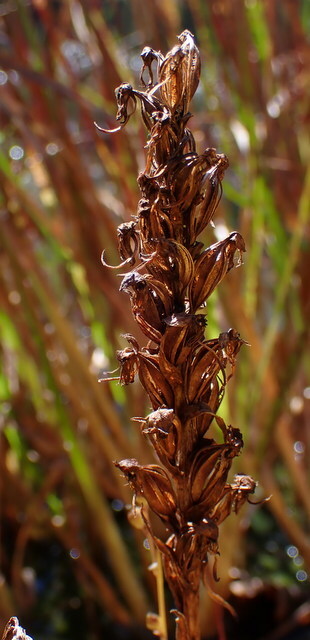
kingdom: Plantae
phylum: Tracheophyta
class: Liliopsida
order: Asparagales
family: Orchidaceae
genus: Habenaria
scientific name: Habenaria repens
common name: Water orchid
